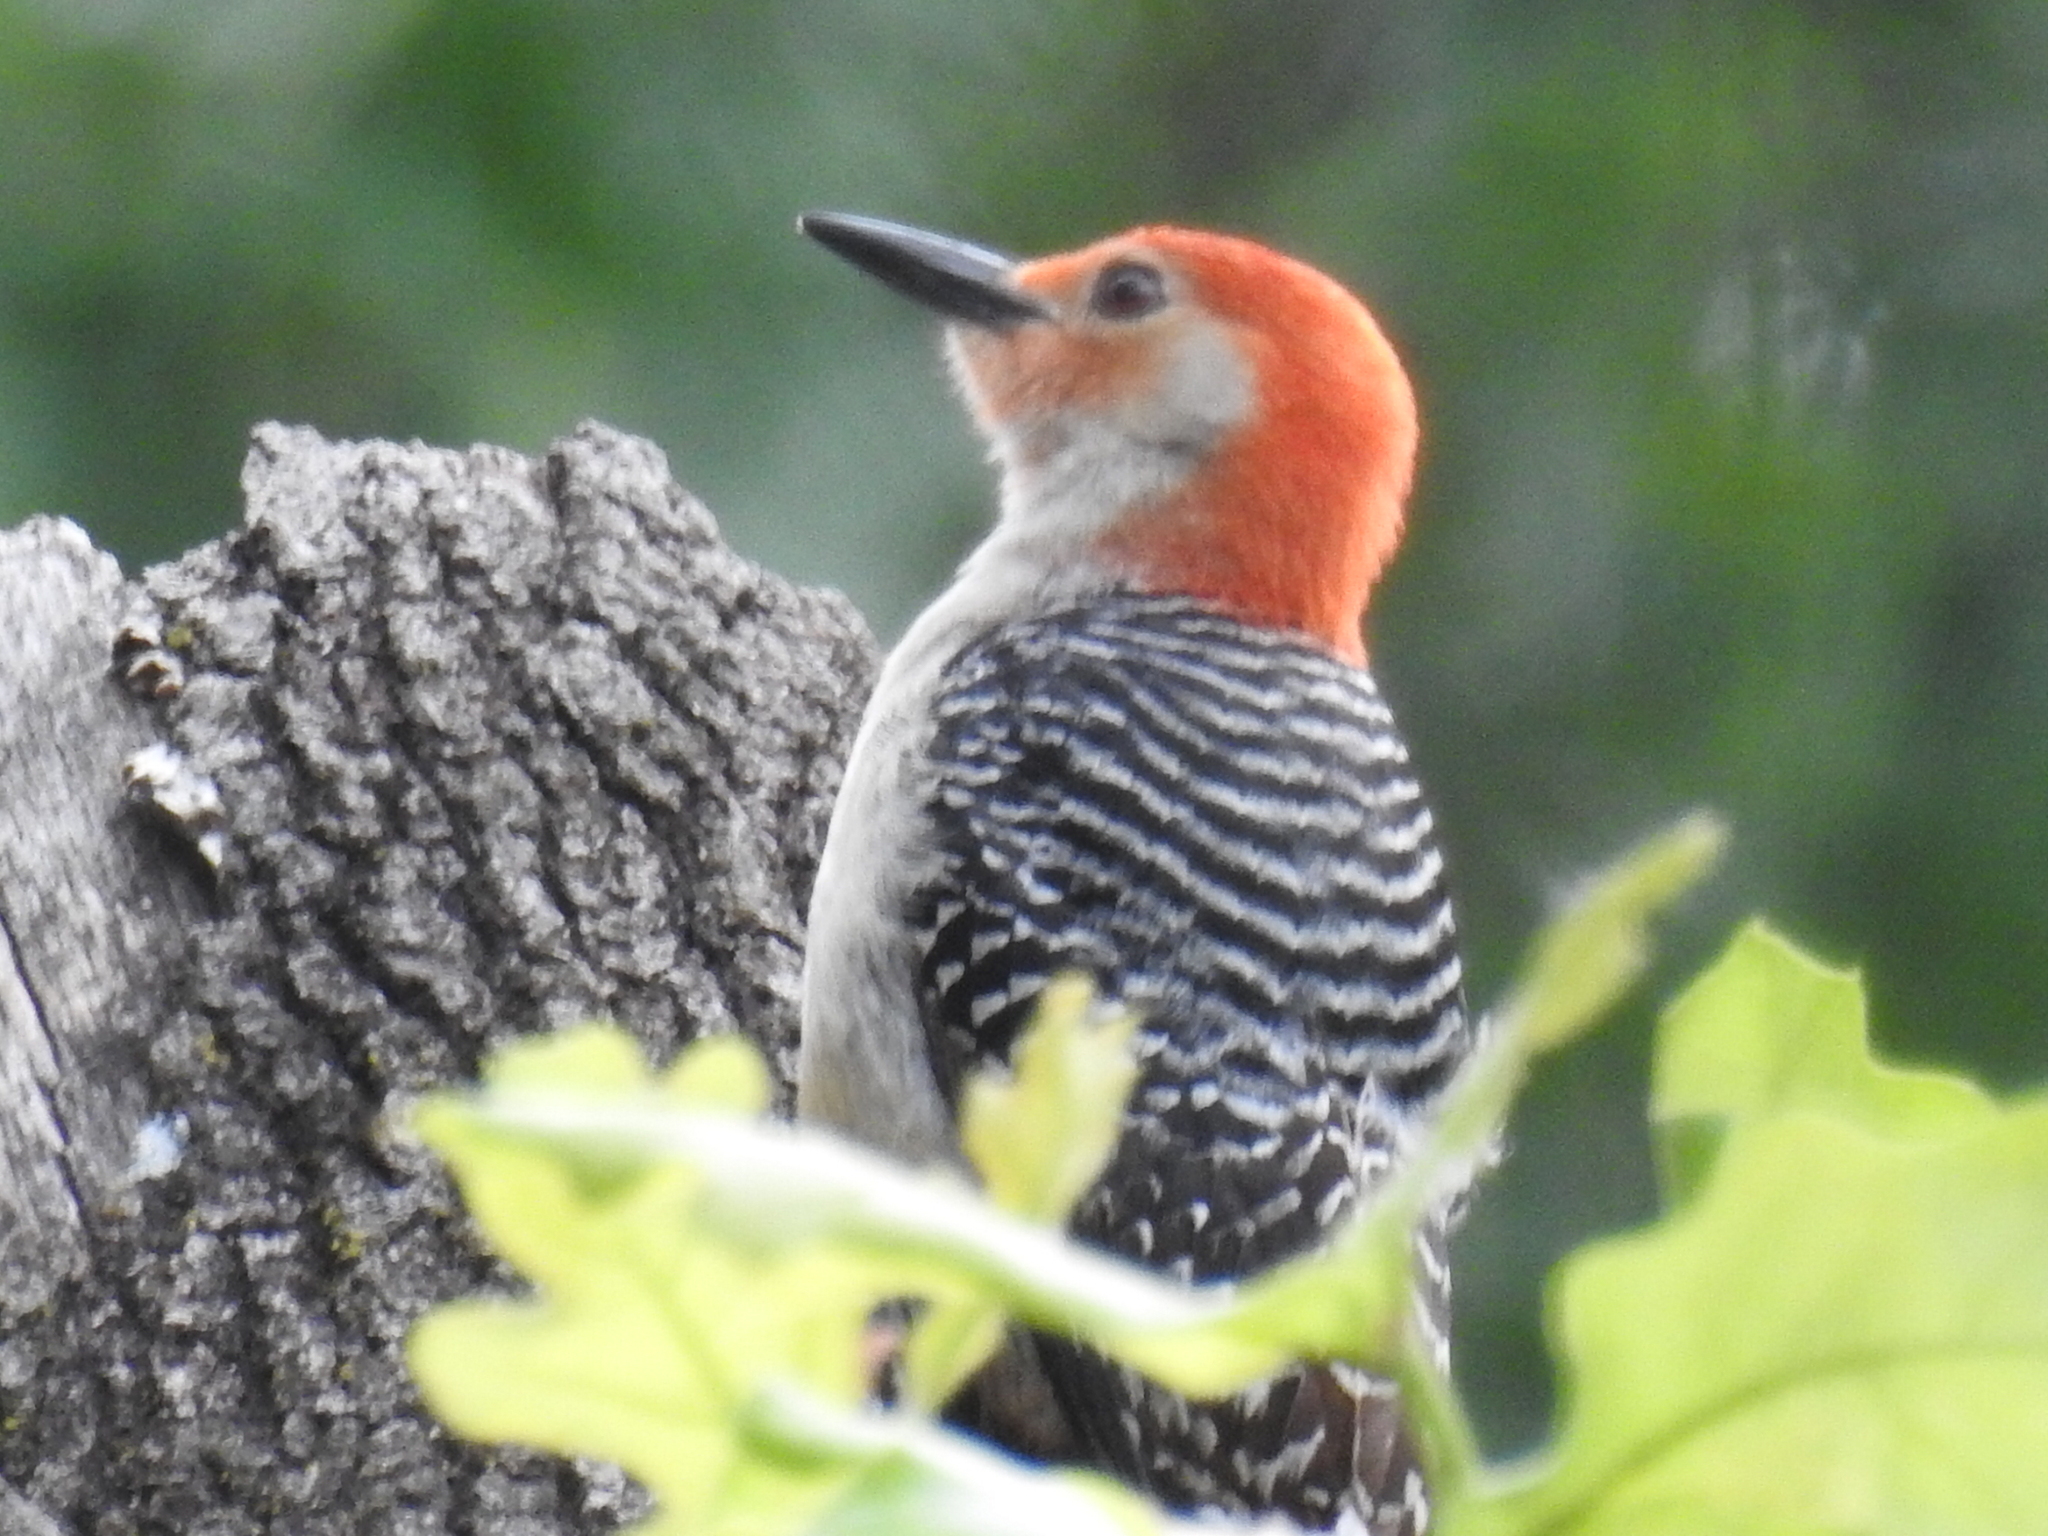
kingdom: Animalia
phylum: Chordata
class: Aves
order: Piciformes
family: Picidae
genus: Melanerpes
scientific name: Melanerpes carolinus
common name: Red-bellied woodpecker
